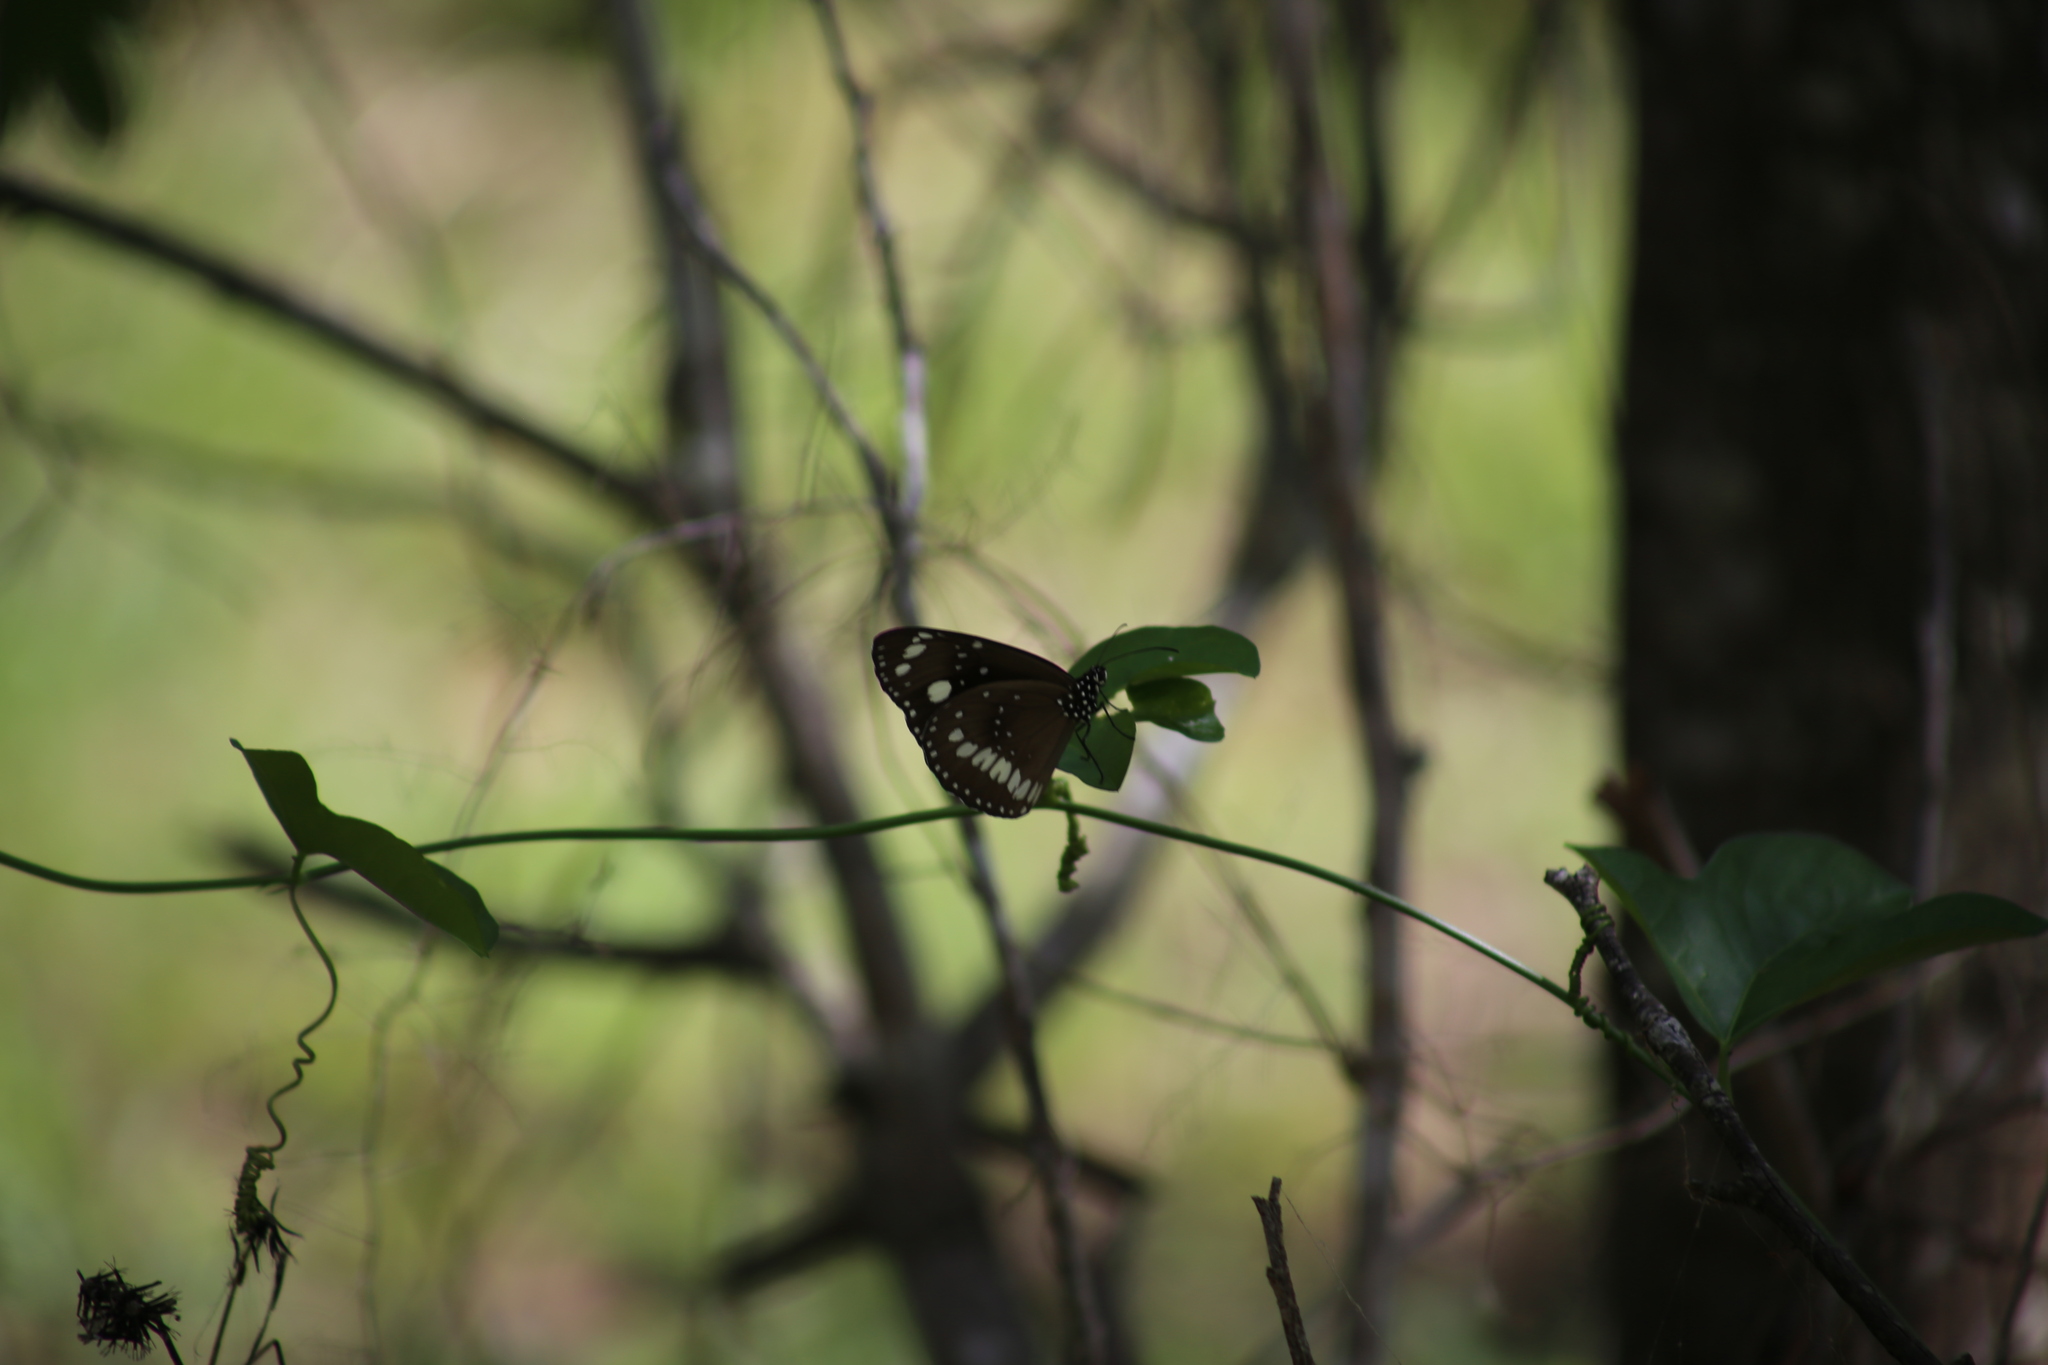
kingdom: Animalia
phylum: Arthropoda
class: Insecta
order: Lepidoptera
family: Nymphalidae
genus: Euploea
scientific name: Euploea core
